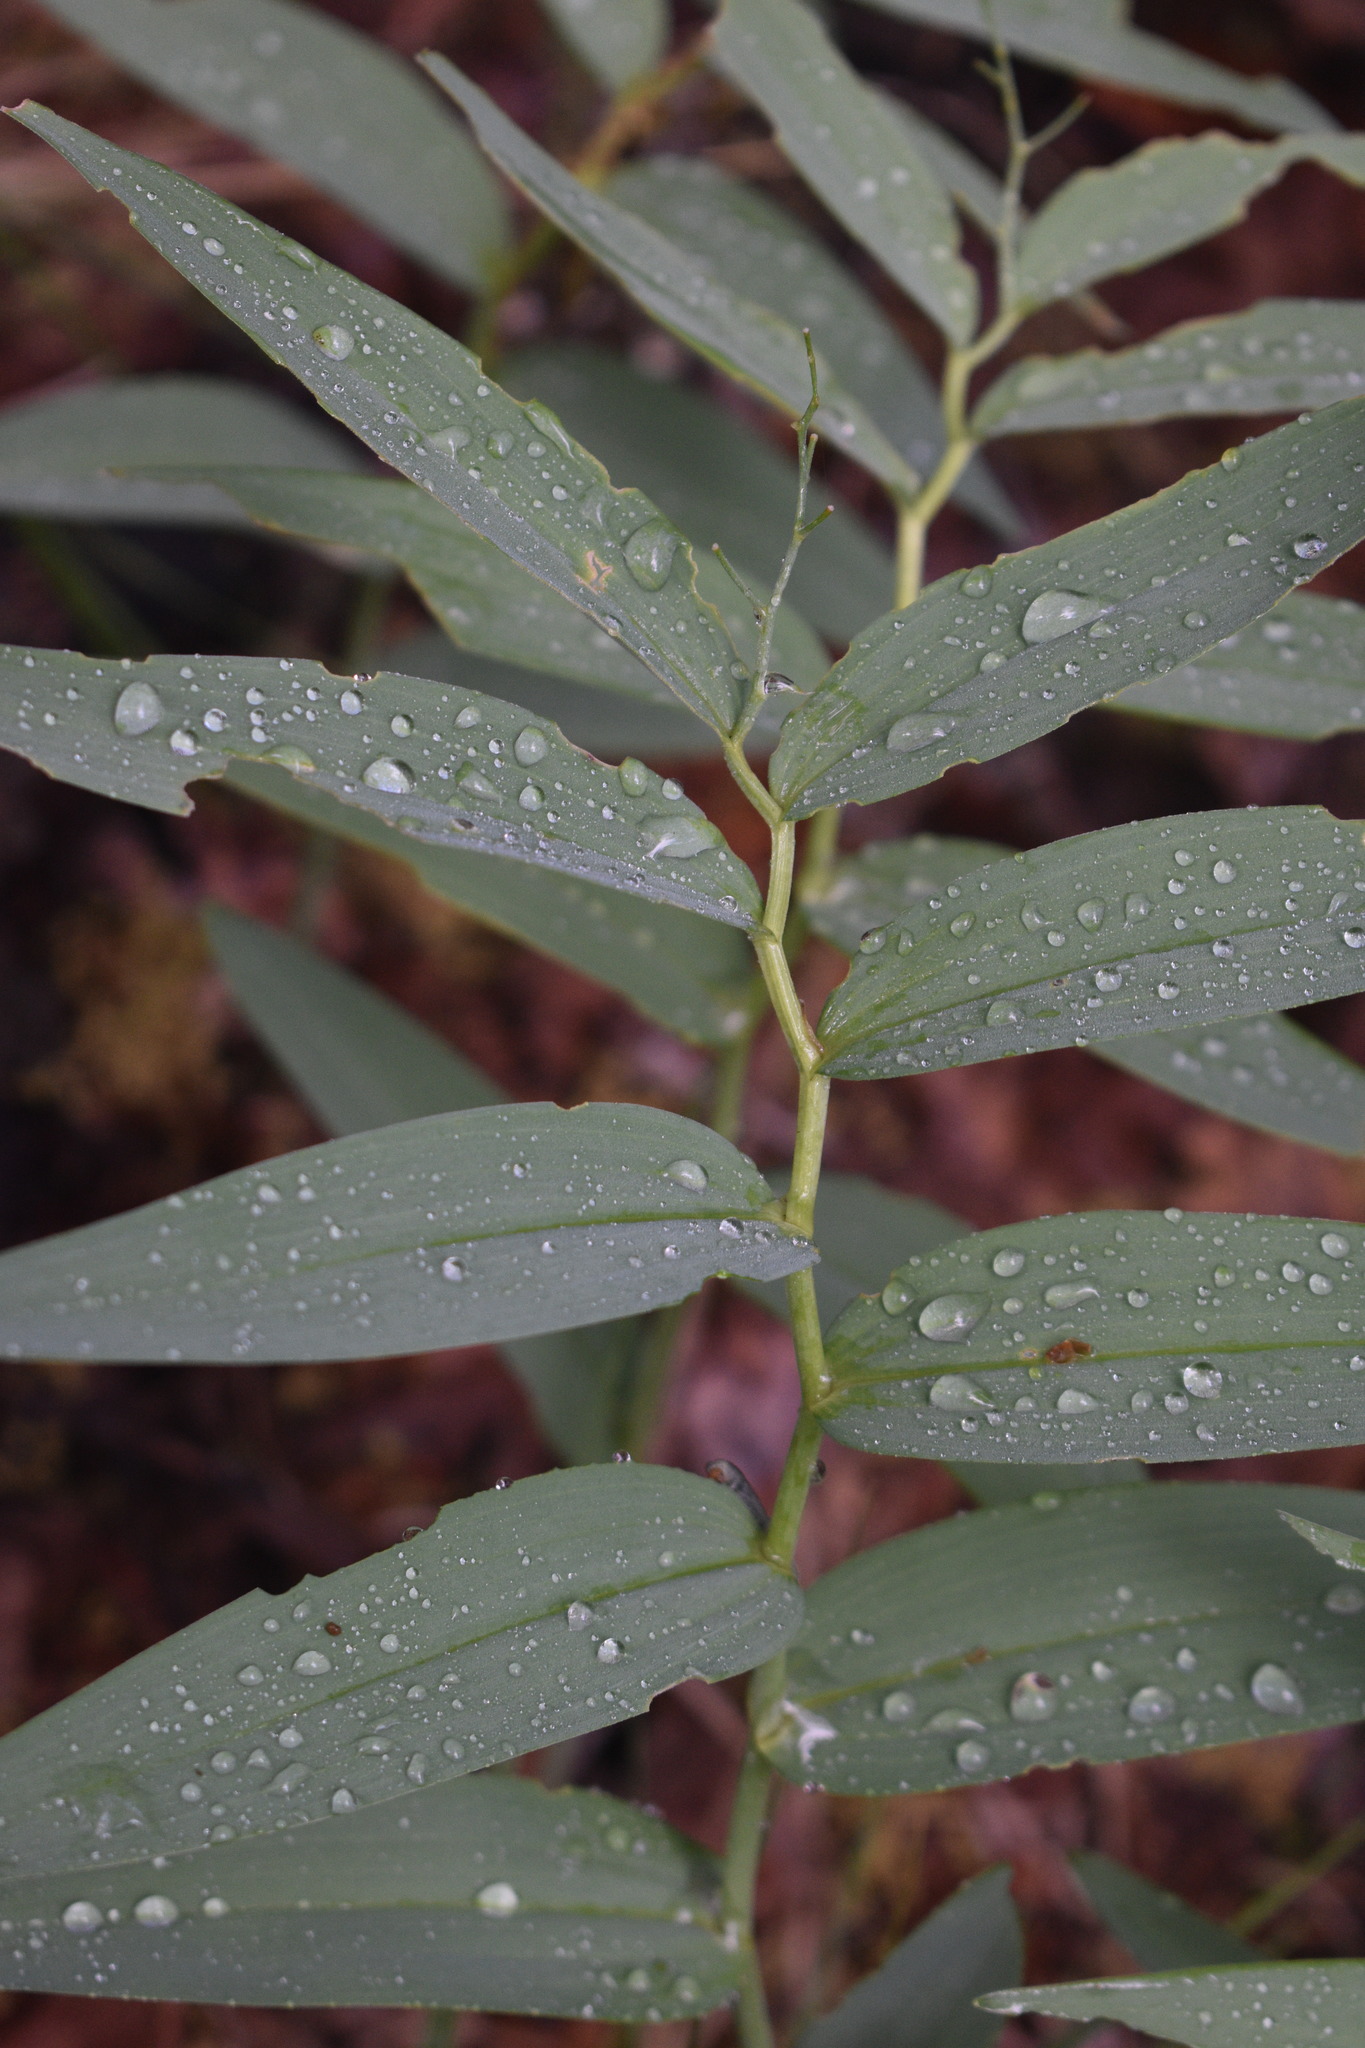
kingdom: Plantae
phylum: Tracheophyta
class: Liliopsida
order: Asparagales
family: Asparagaceae
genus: Maianthemum
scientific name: Maianthemum stellatum
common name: Little false solomon's seal
